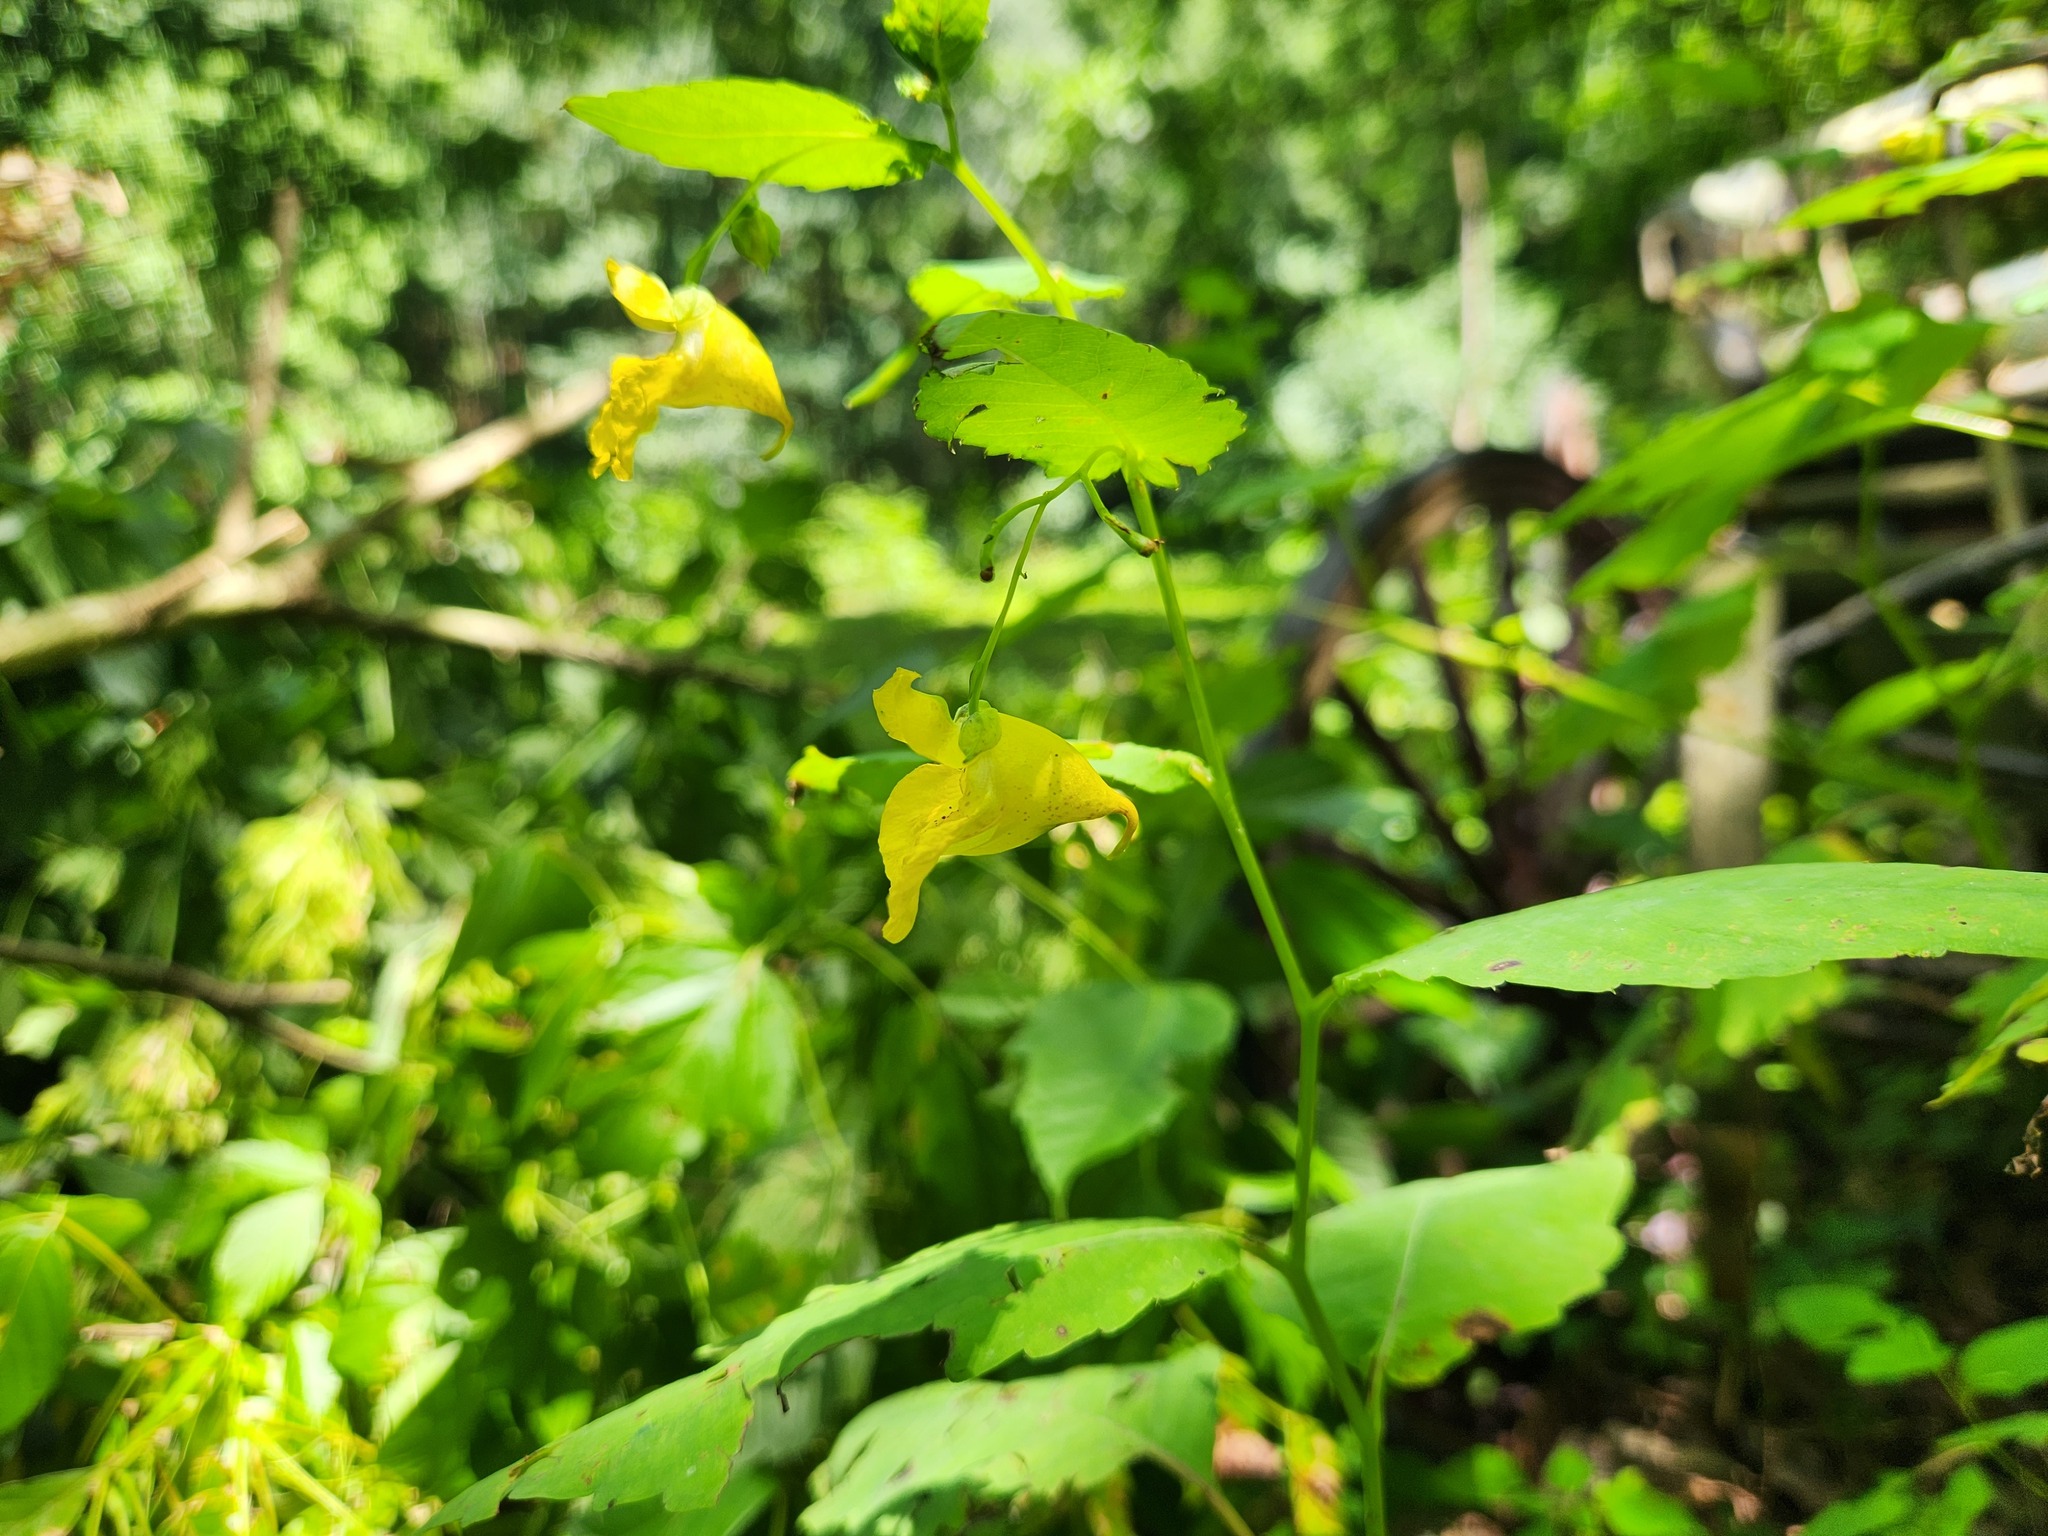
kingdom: Plantae
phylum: Tracheophyta
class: Magnoliopsida
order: Ericales
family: Balsaminaceae
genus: Impatiens
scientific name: Impatiens pallida
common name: Pale snapweed
